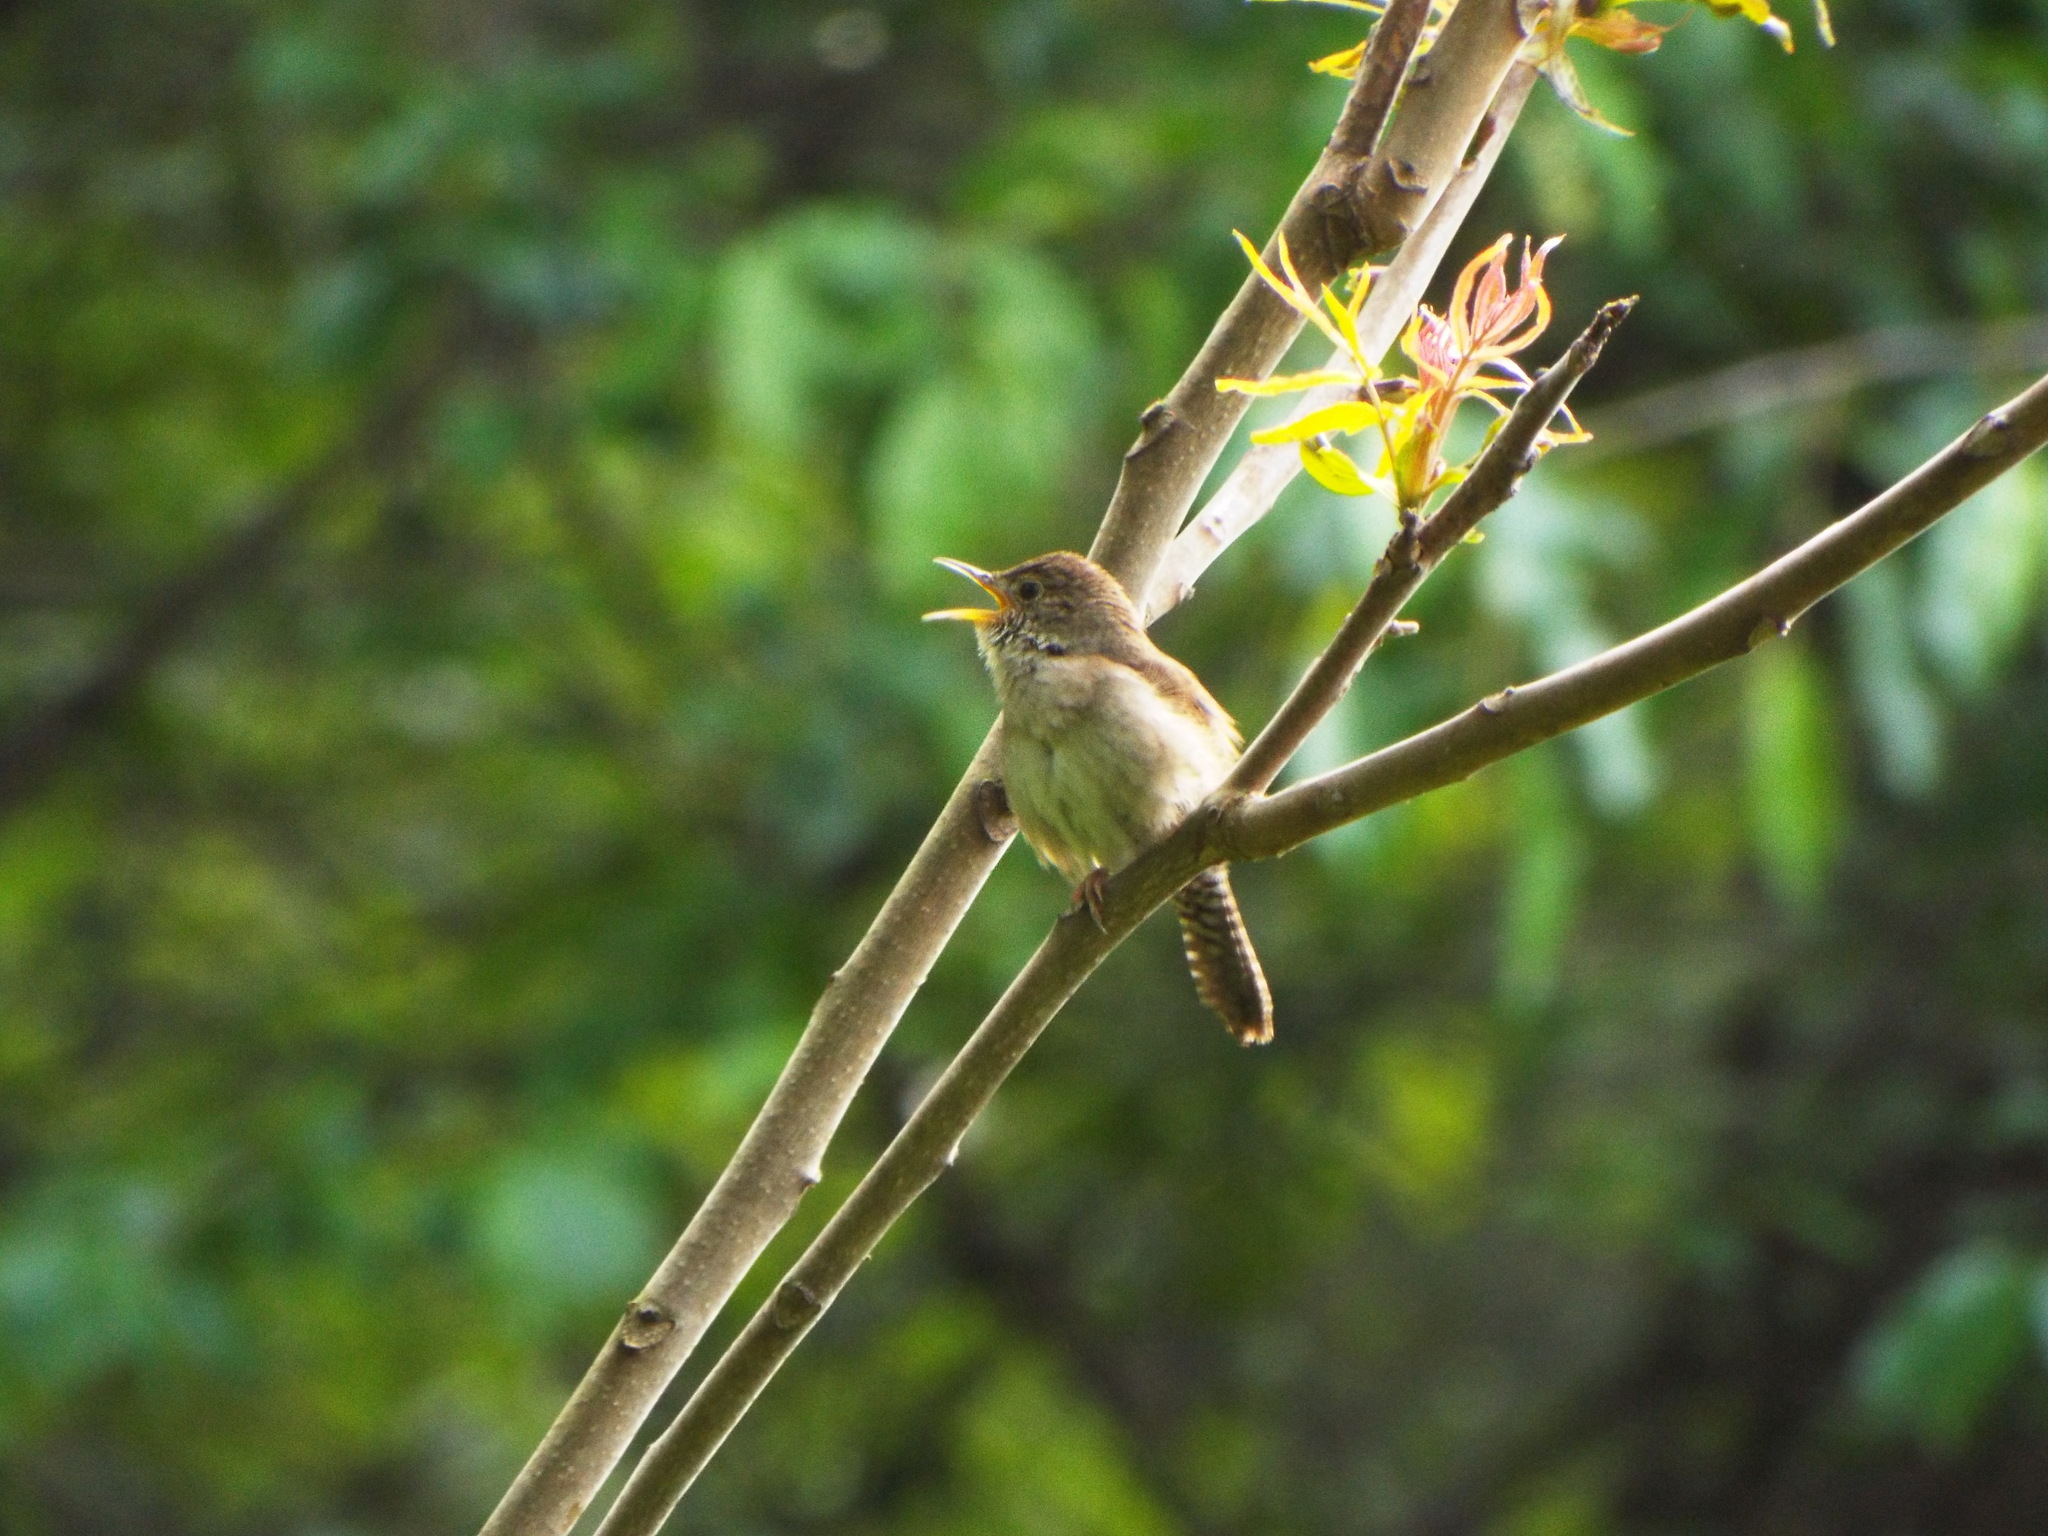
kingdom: Animalia
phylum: Chordata
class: Aves
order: Passeriformes
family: Troglodytidae
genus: Troglodytes
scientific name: Troglodytes aedon
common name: House wren
